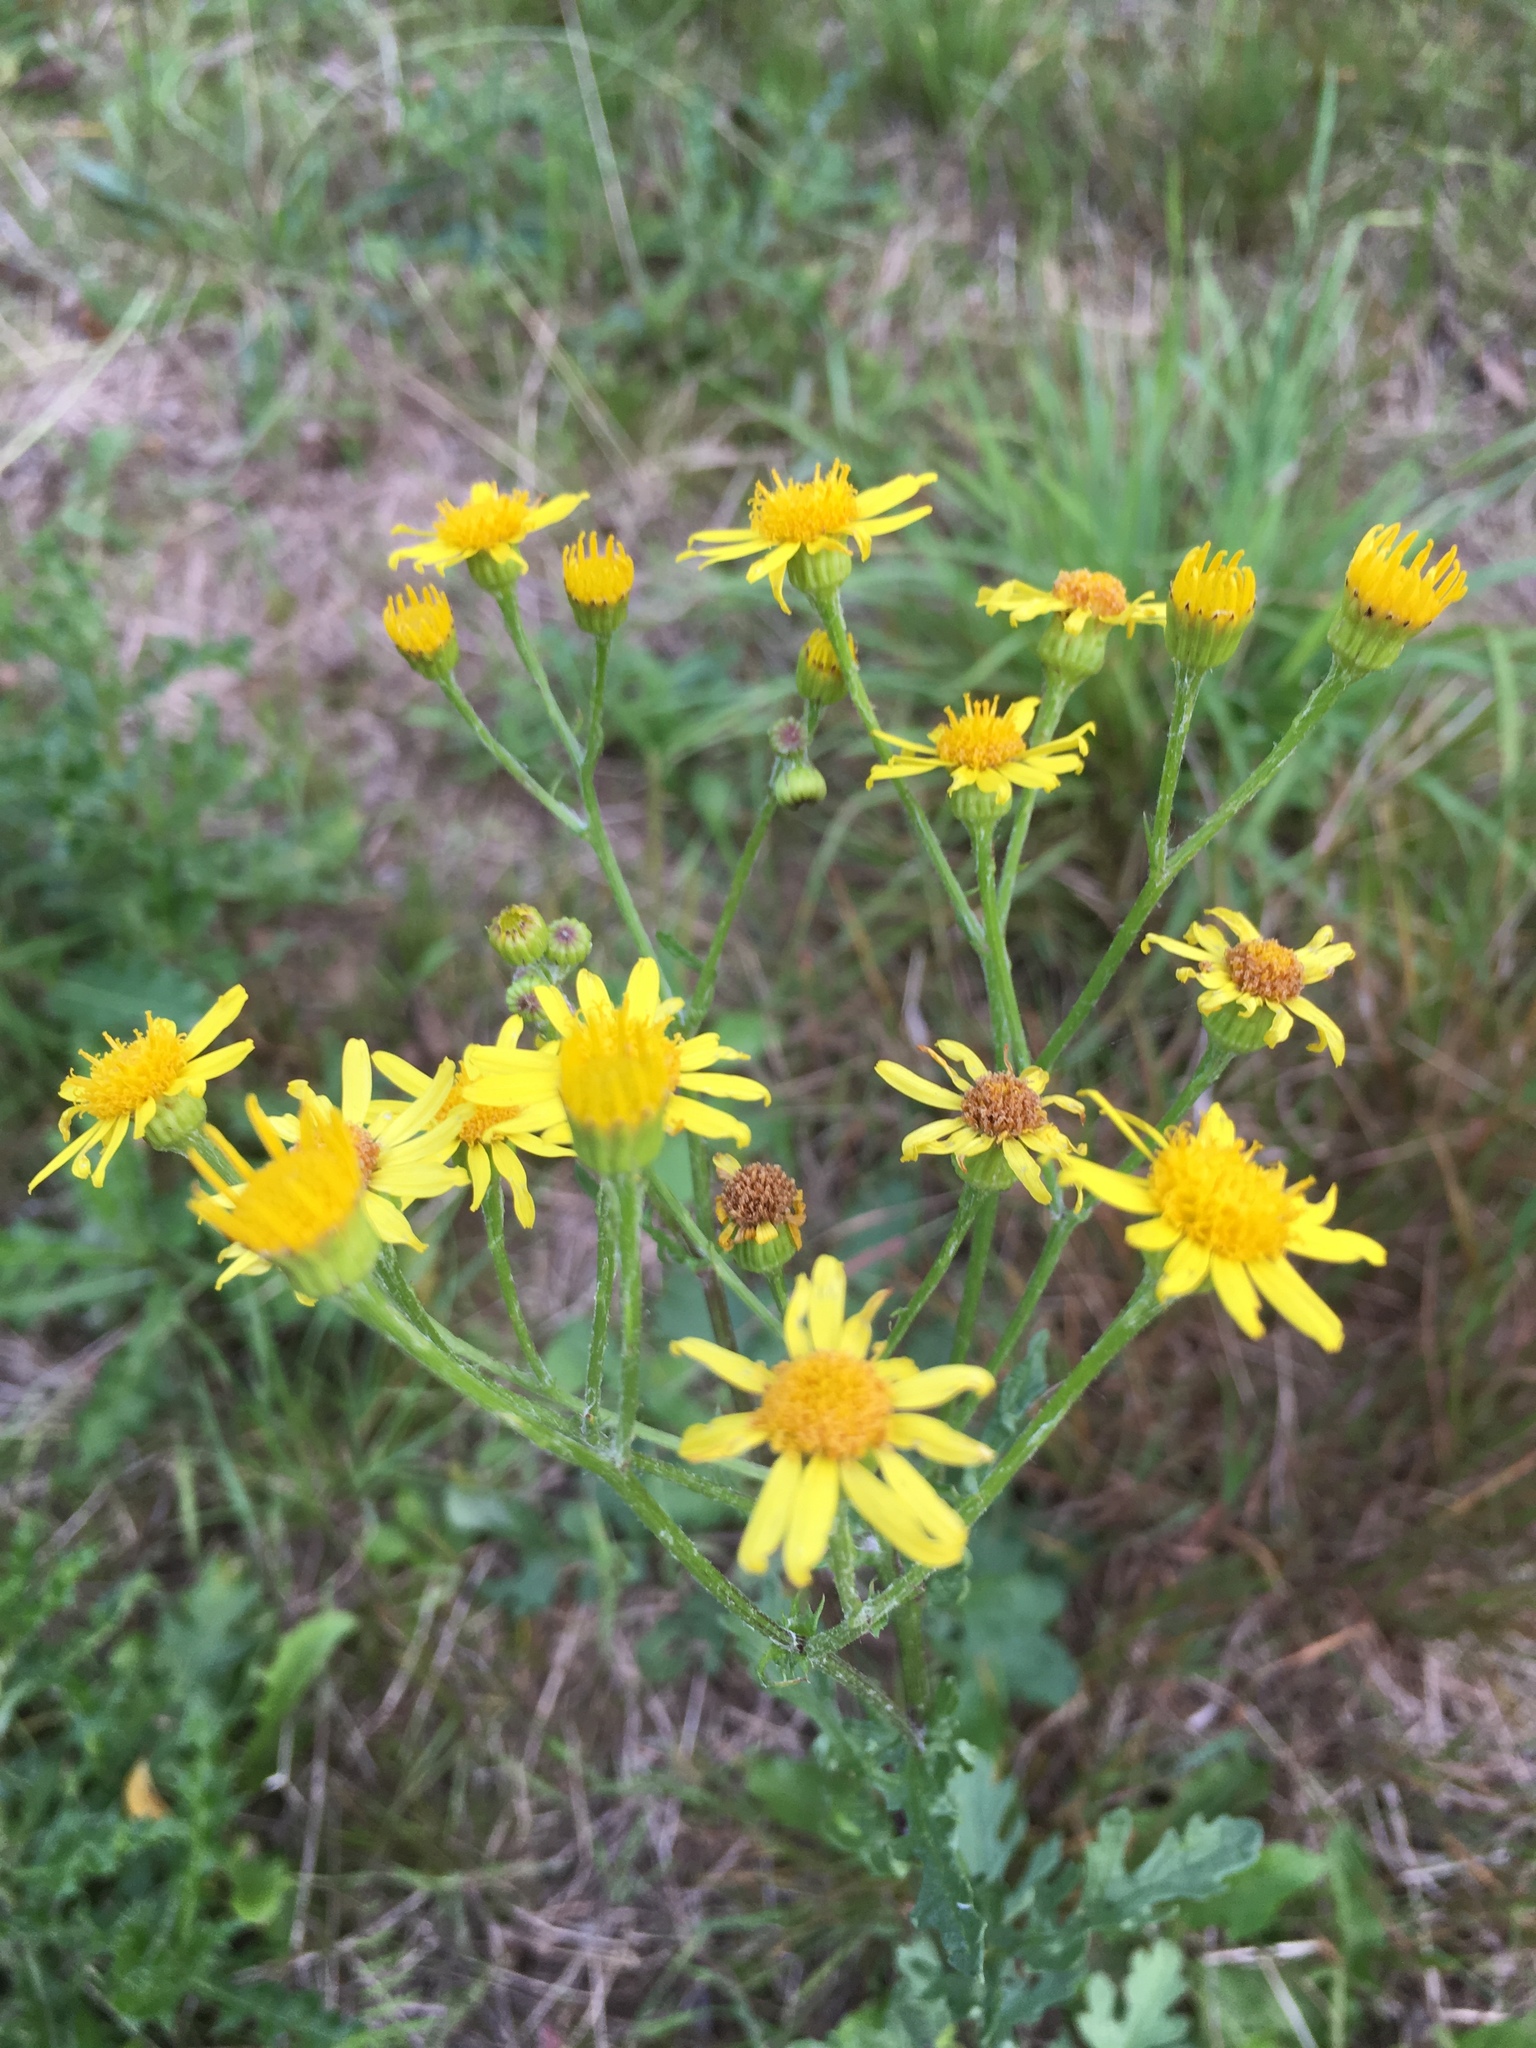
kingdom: Plantae
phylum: Tracheophyta
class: Magnoliopsida
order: Asterales
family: Asteraceae
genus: Jacobaea
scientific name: Jacobaea vulgaris
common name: Stinking willie
